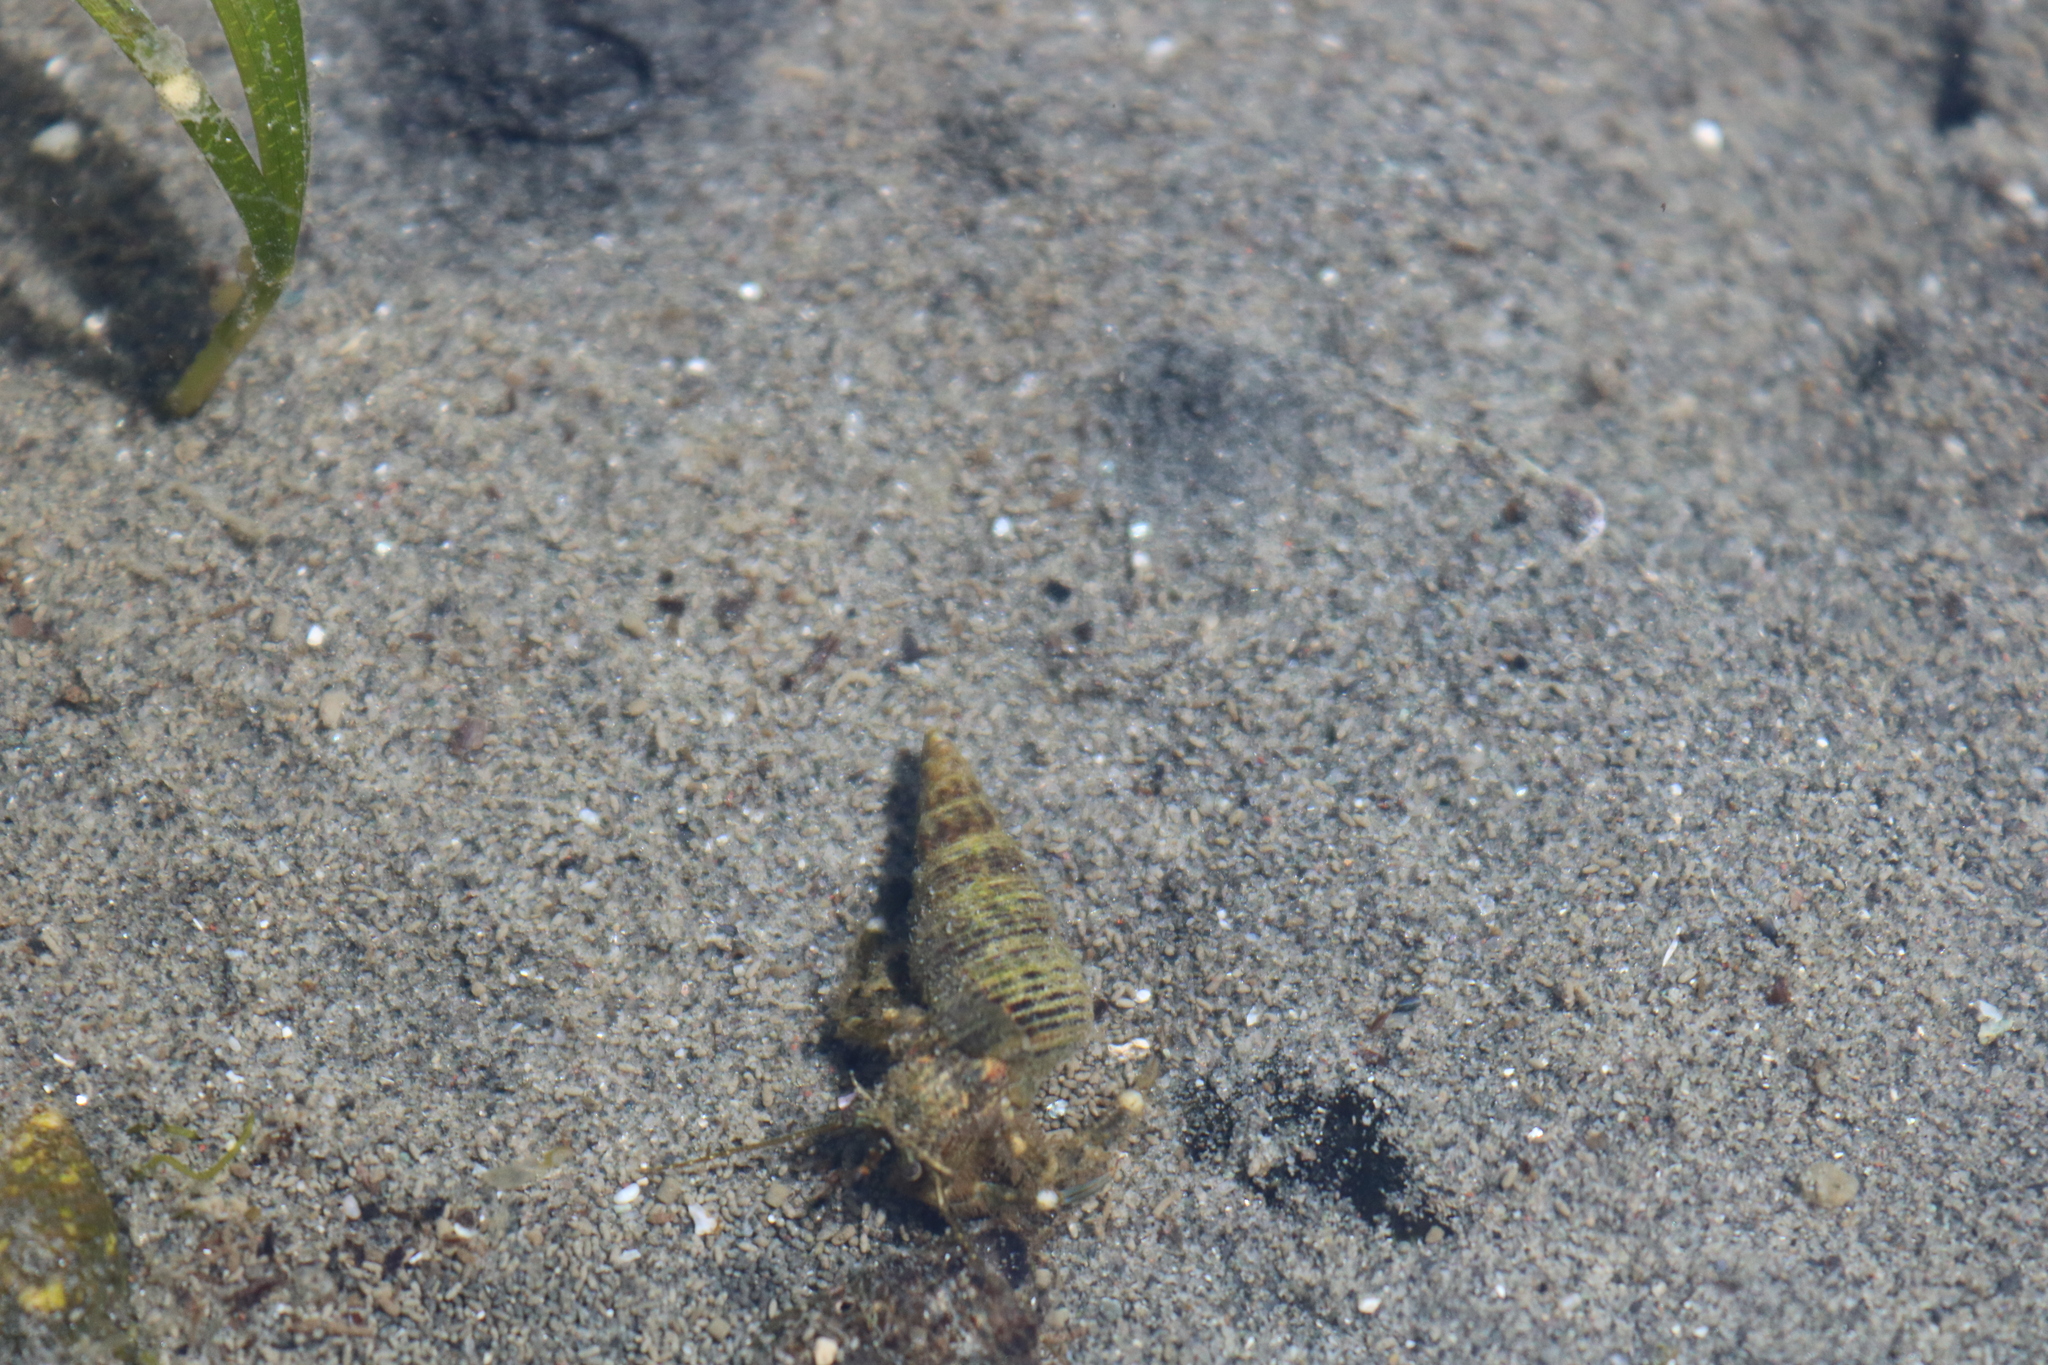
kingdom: Animalia
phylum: Arthropoda
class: Malacostraca
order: Decapoda
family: Paguridae
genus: Pagurus
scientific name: Pagurus hirsutiusculus
